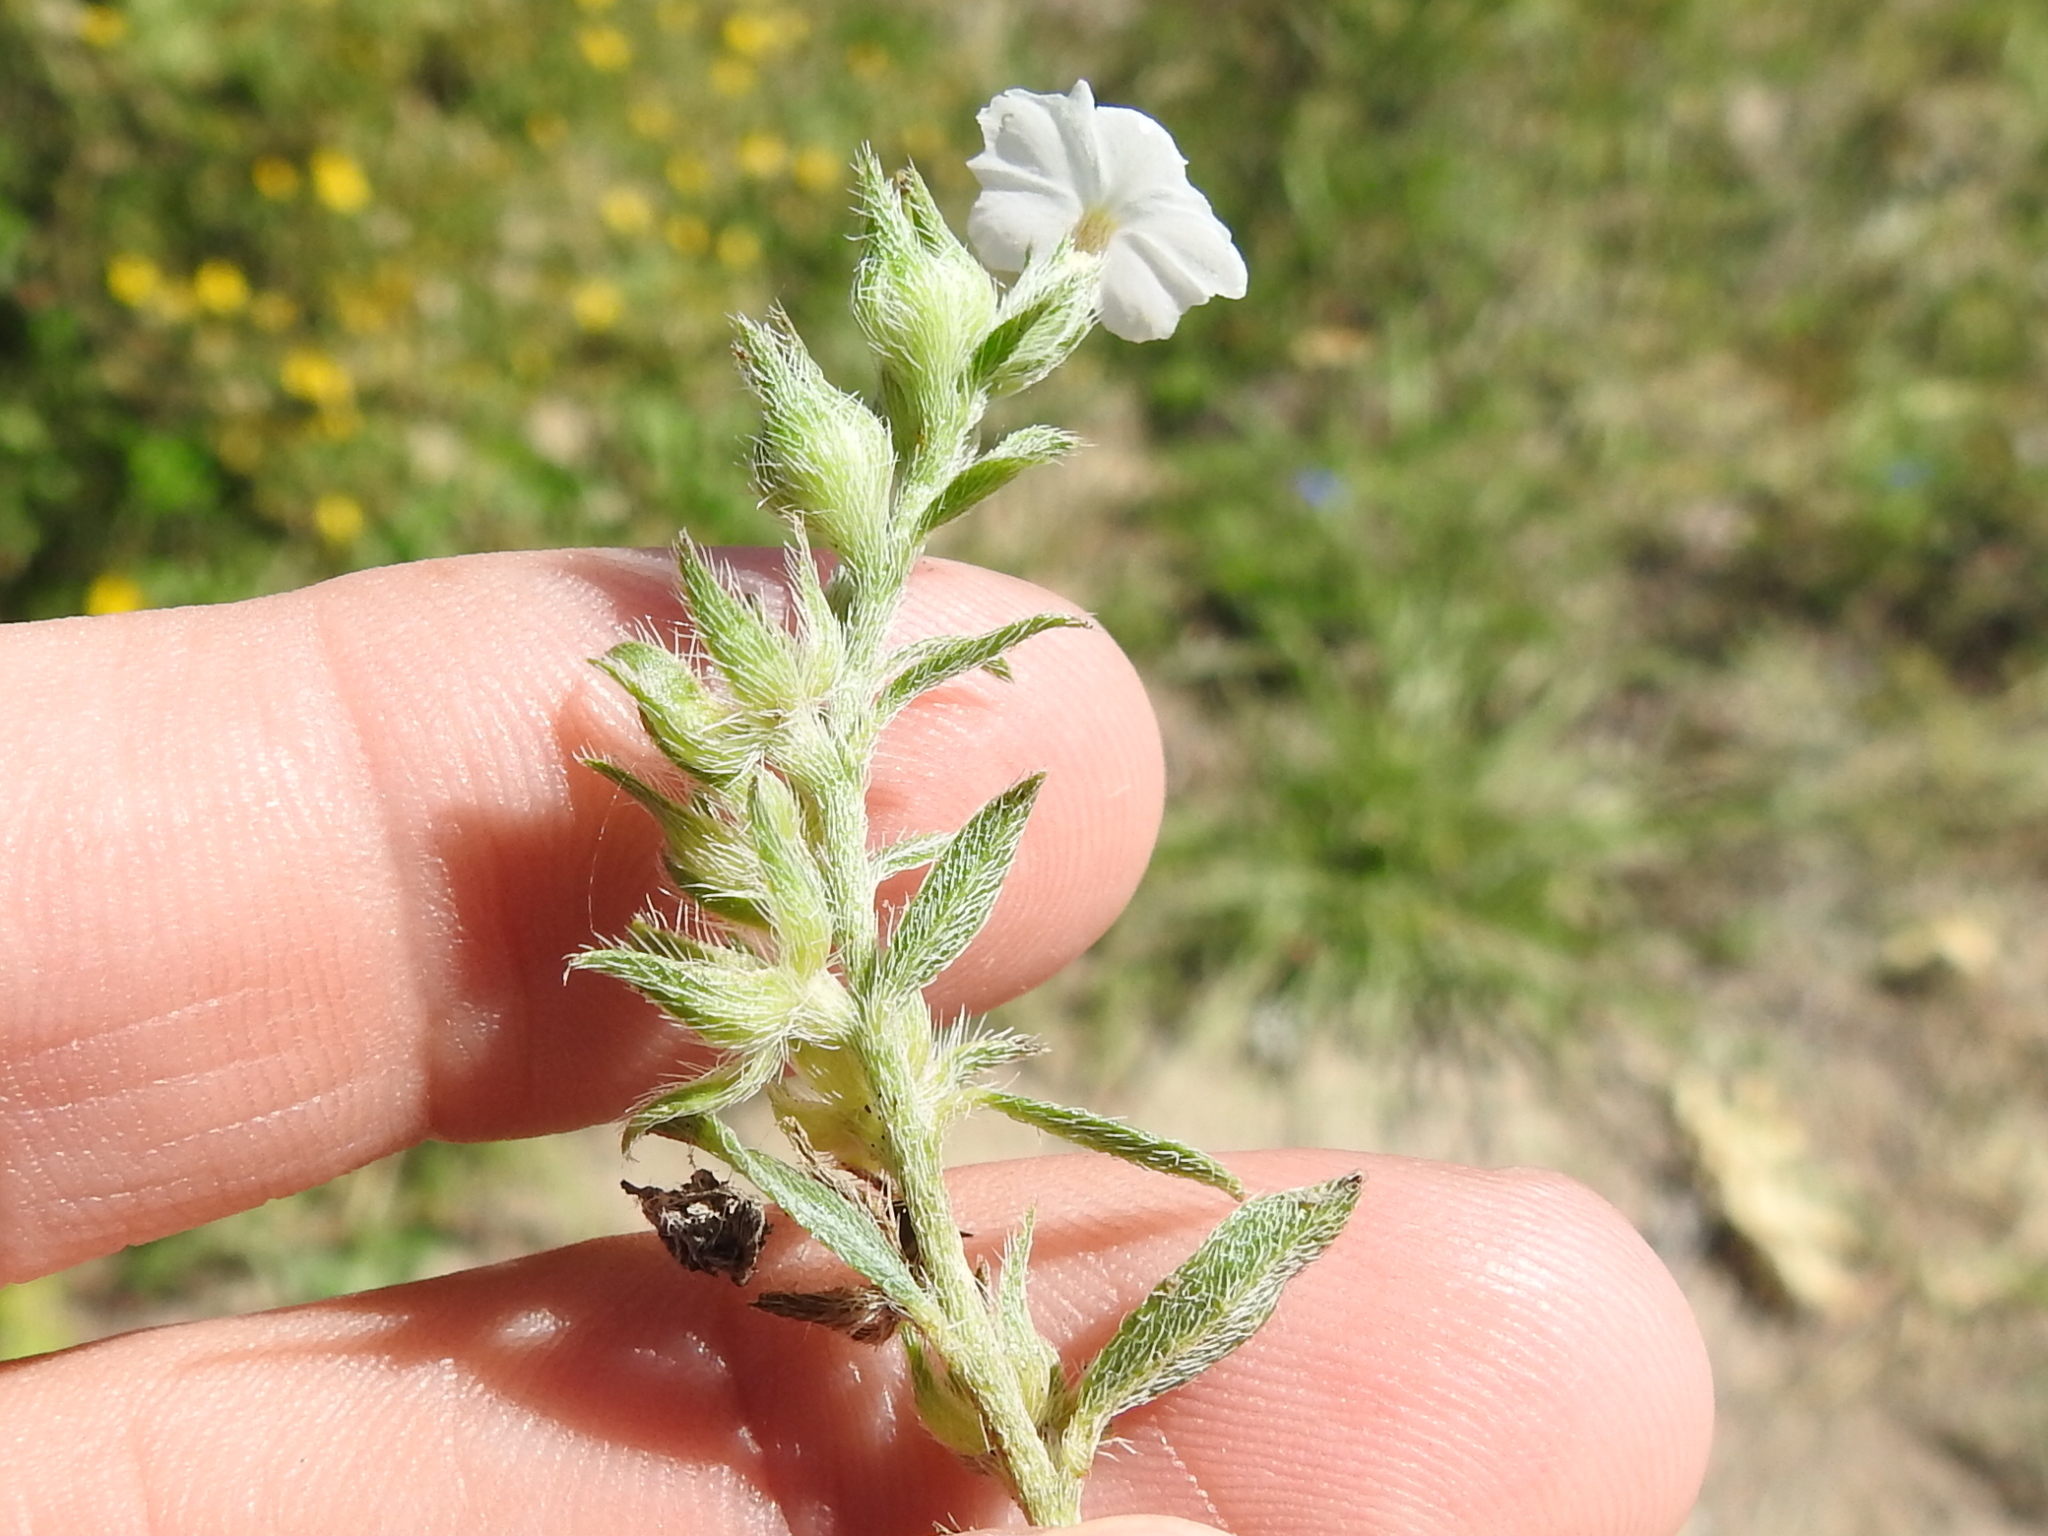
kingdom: Plantae
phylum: Tracheophyta
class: Magnoliopsida
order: Boraginales
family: Heliotropiaceae
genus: Euploca
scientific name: Euploca racemosa
